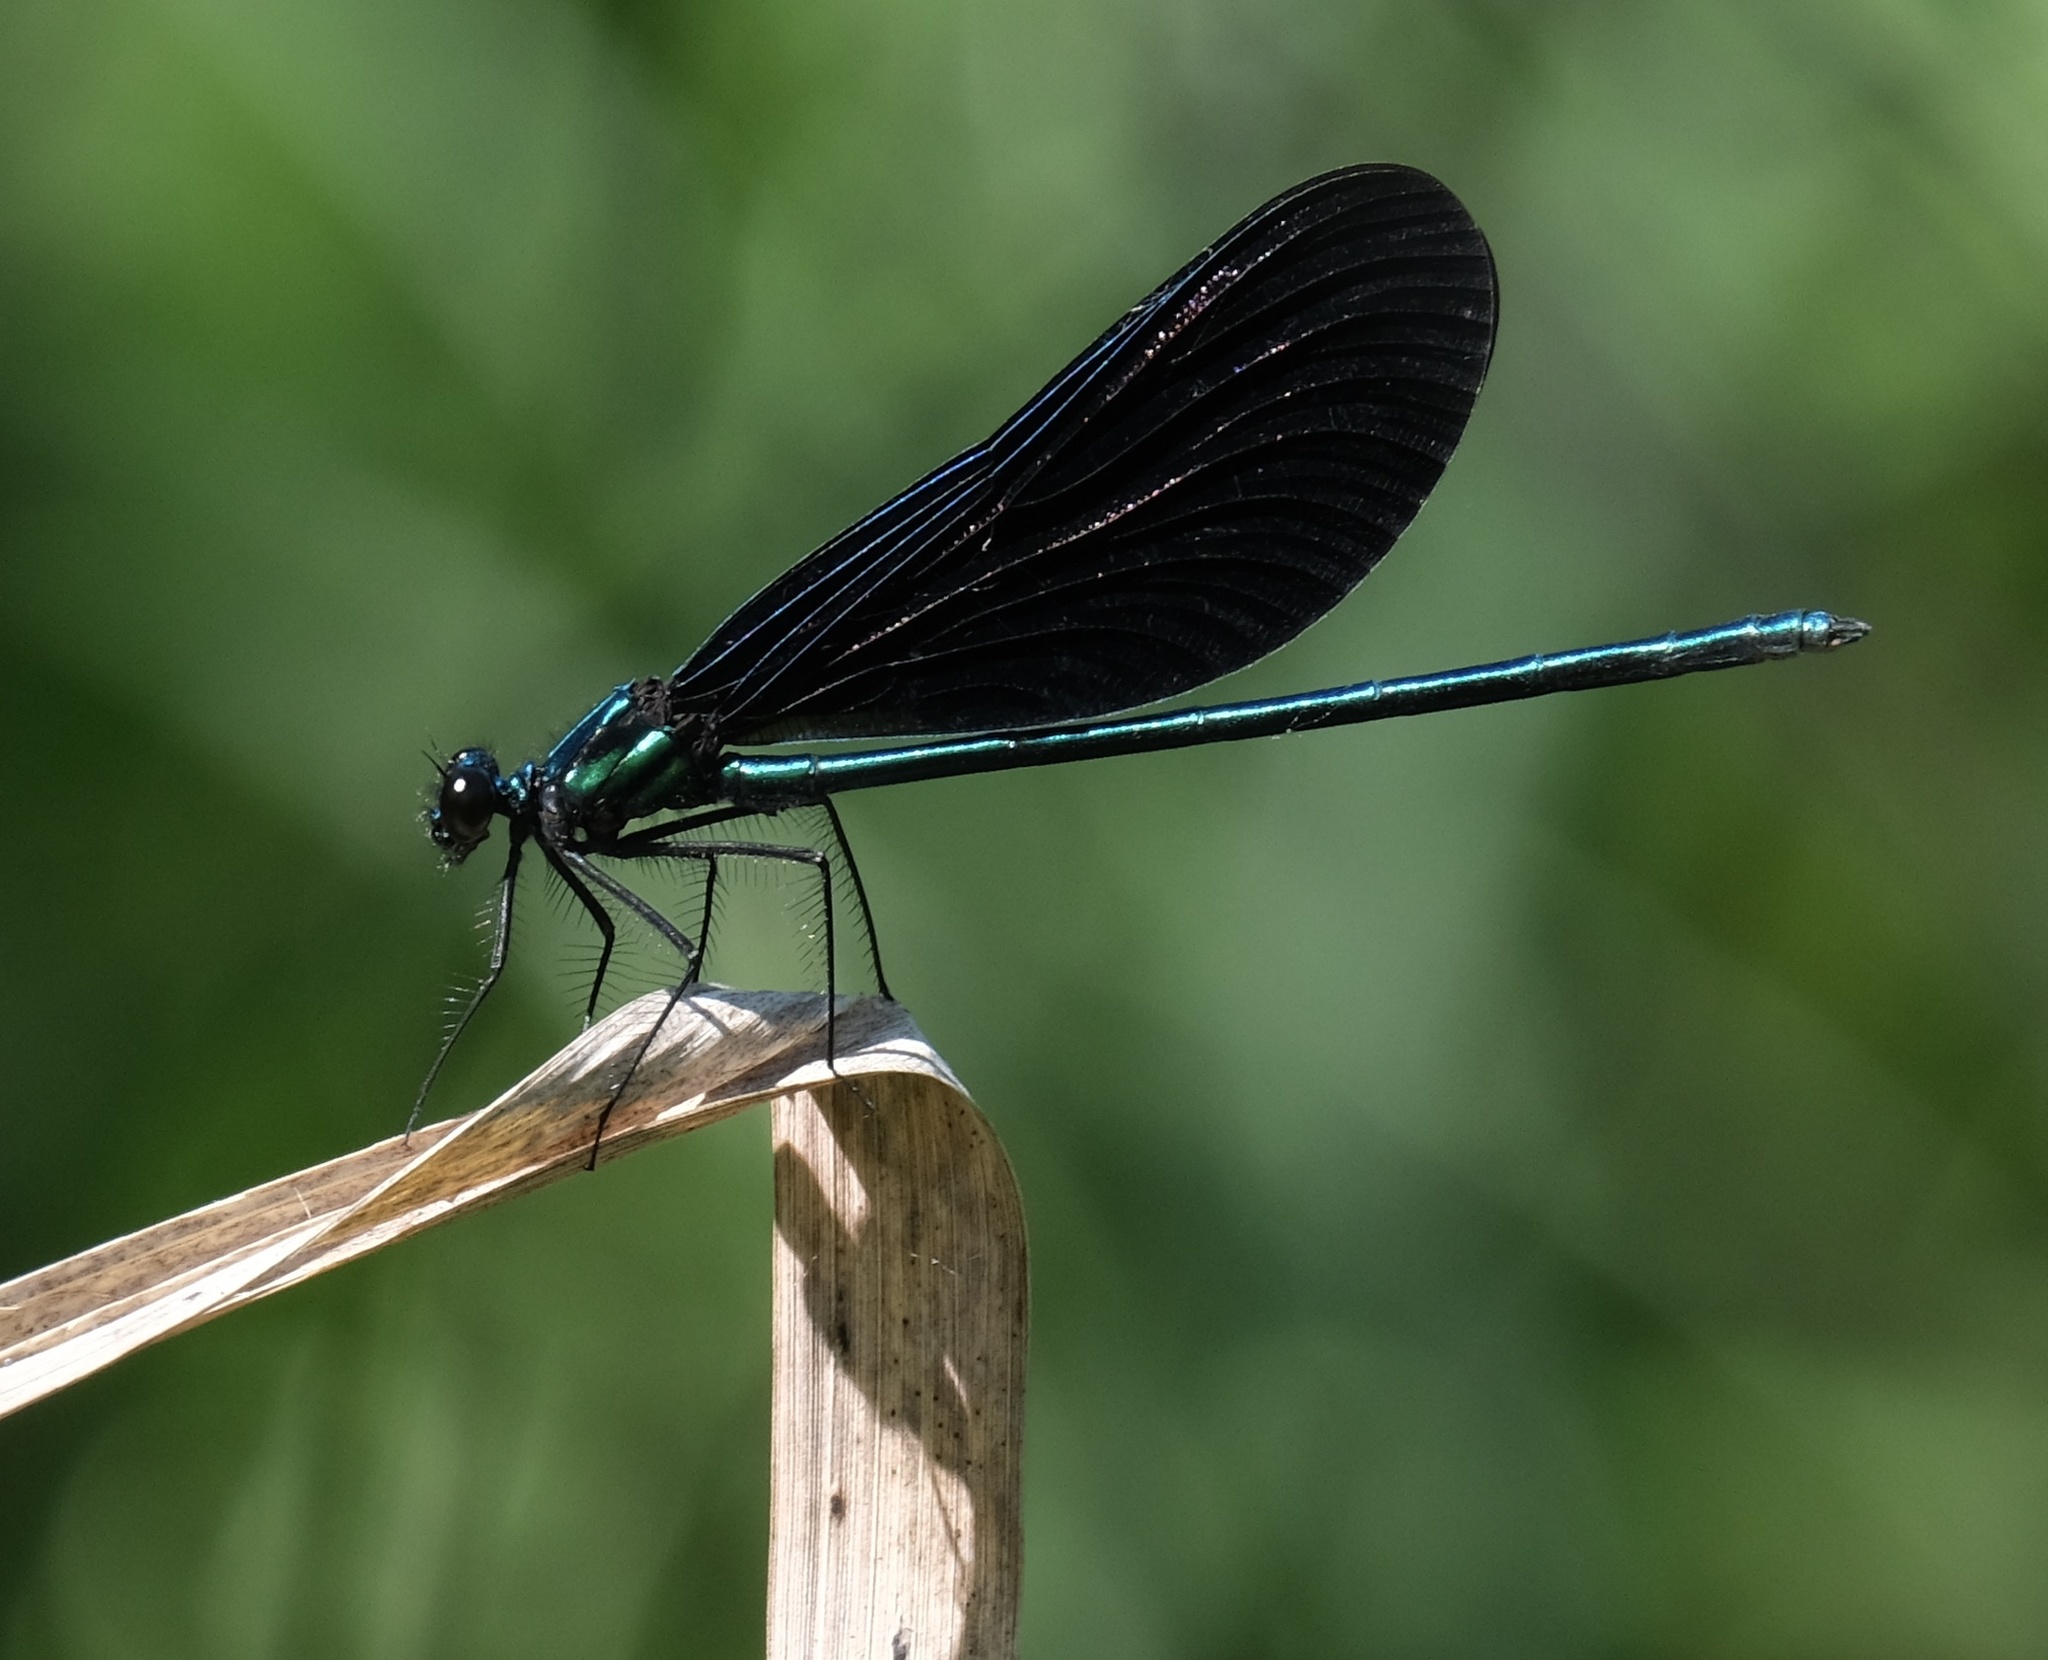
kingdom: Animalia
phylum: Arthropoda
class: Insecta
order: Odonata
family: Calopterygidae
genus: Calopteryx
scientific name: Calopteryx maculata
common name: Ebony jewelwing
